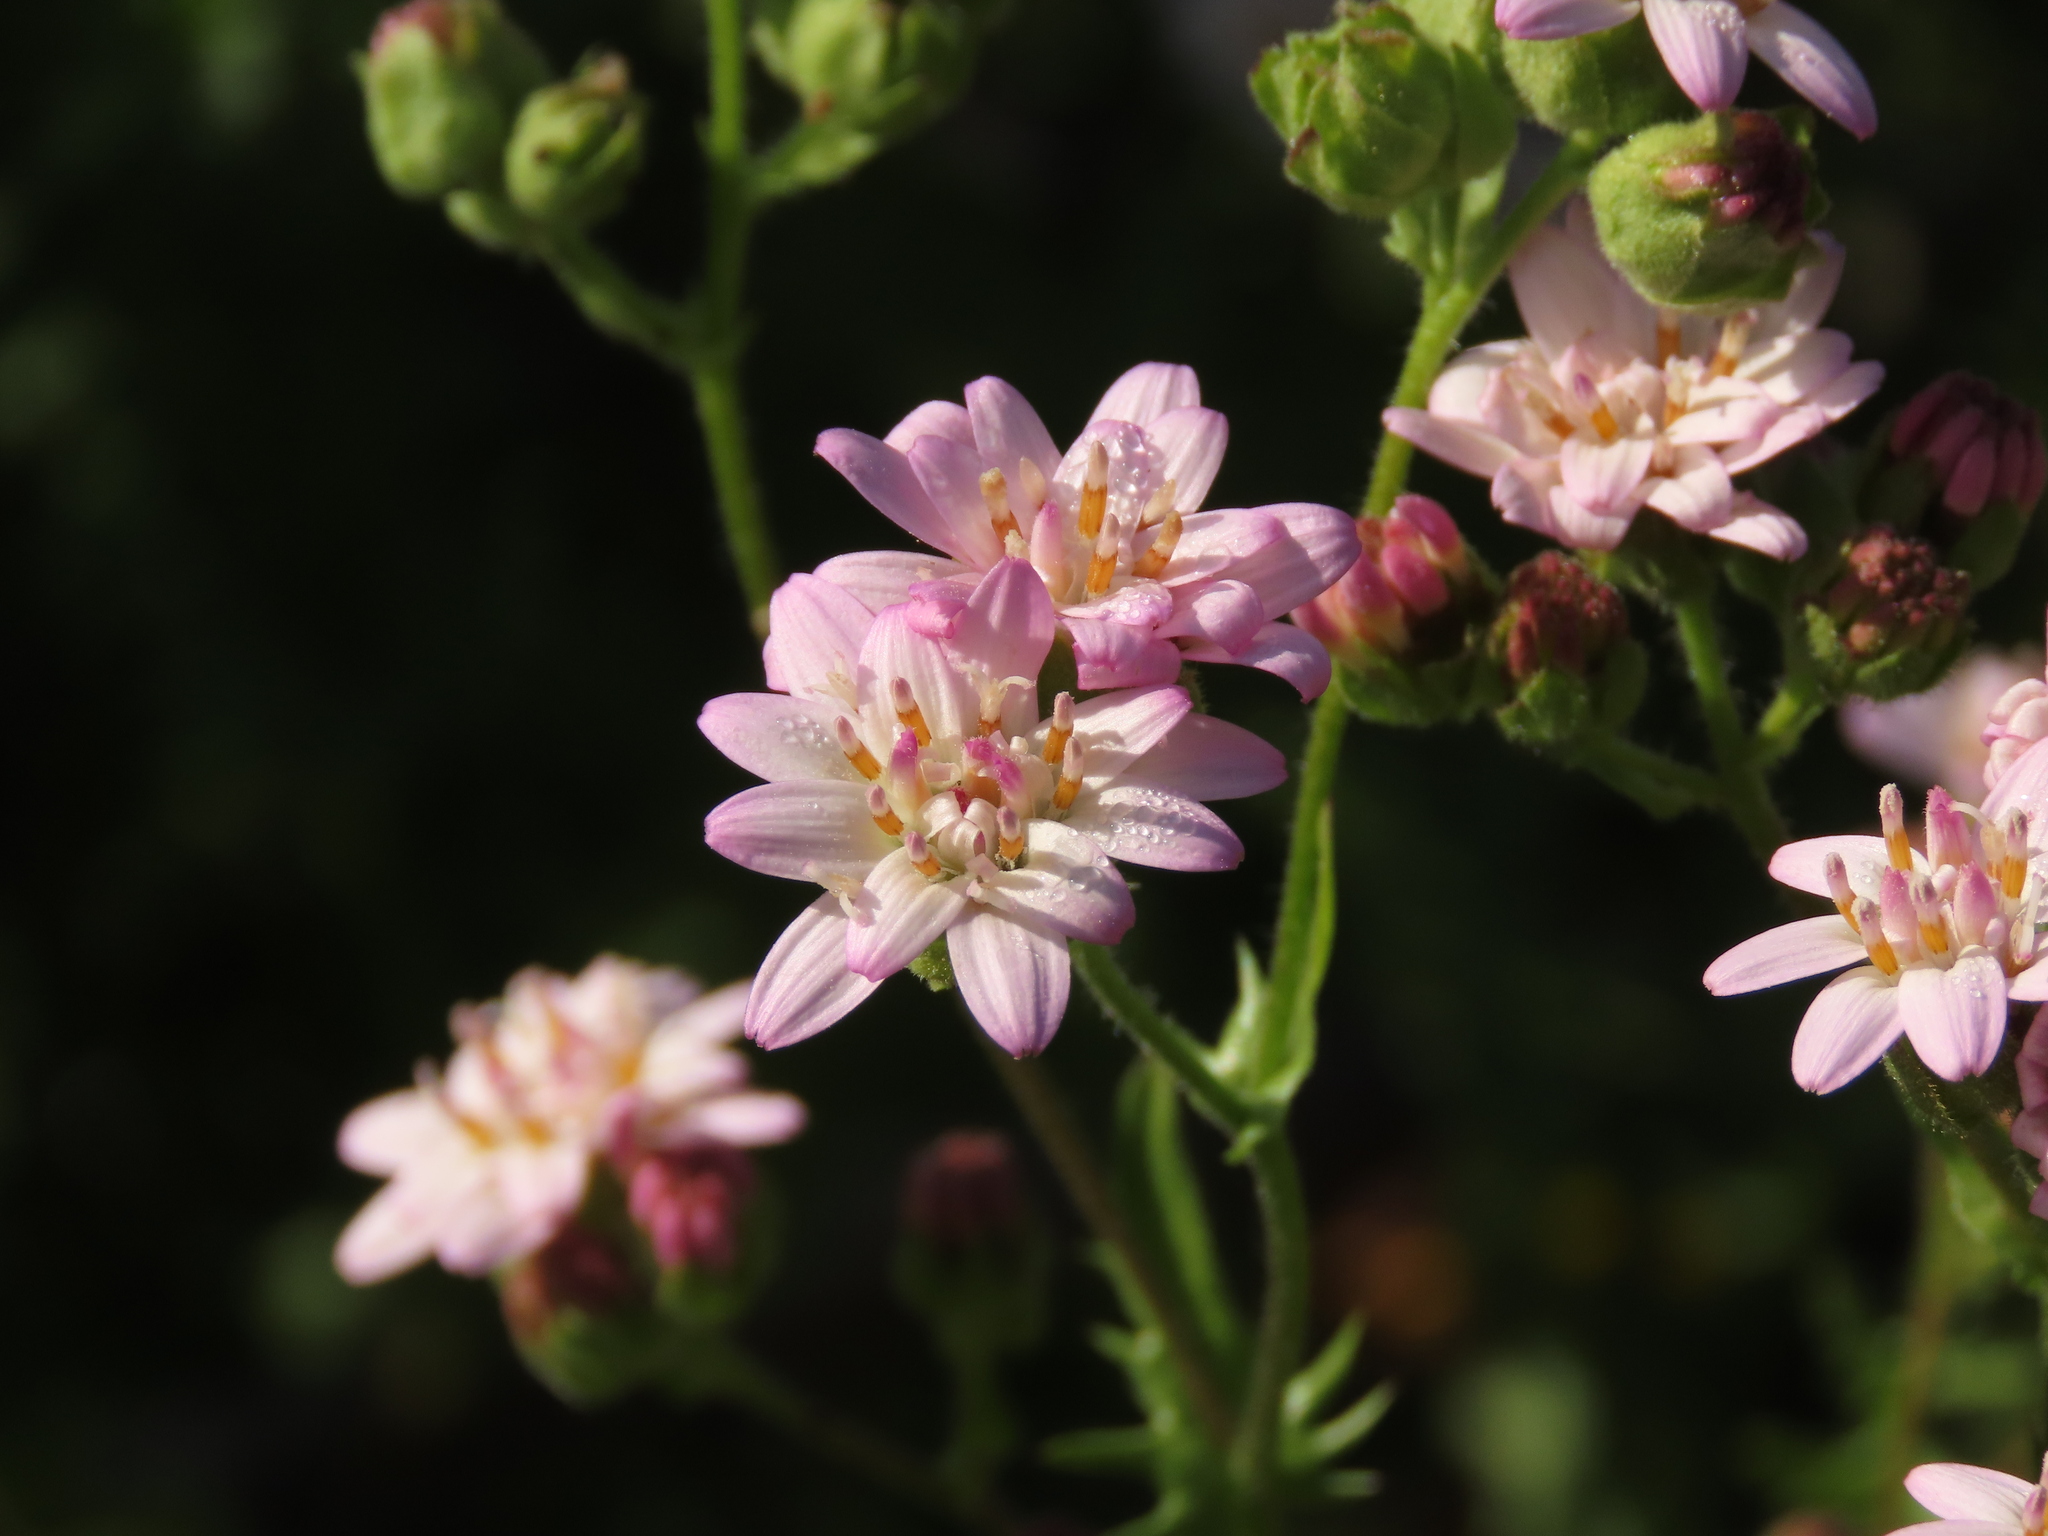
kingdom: Plantae
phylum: Tracheophyta
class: Magnoliopsida
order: Asterales
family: Asteraceae
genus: Moscharia
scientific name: Moscharia pinnatifida
